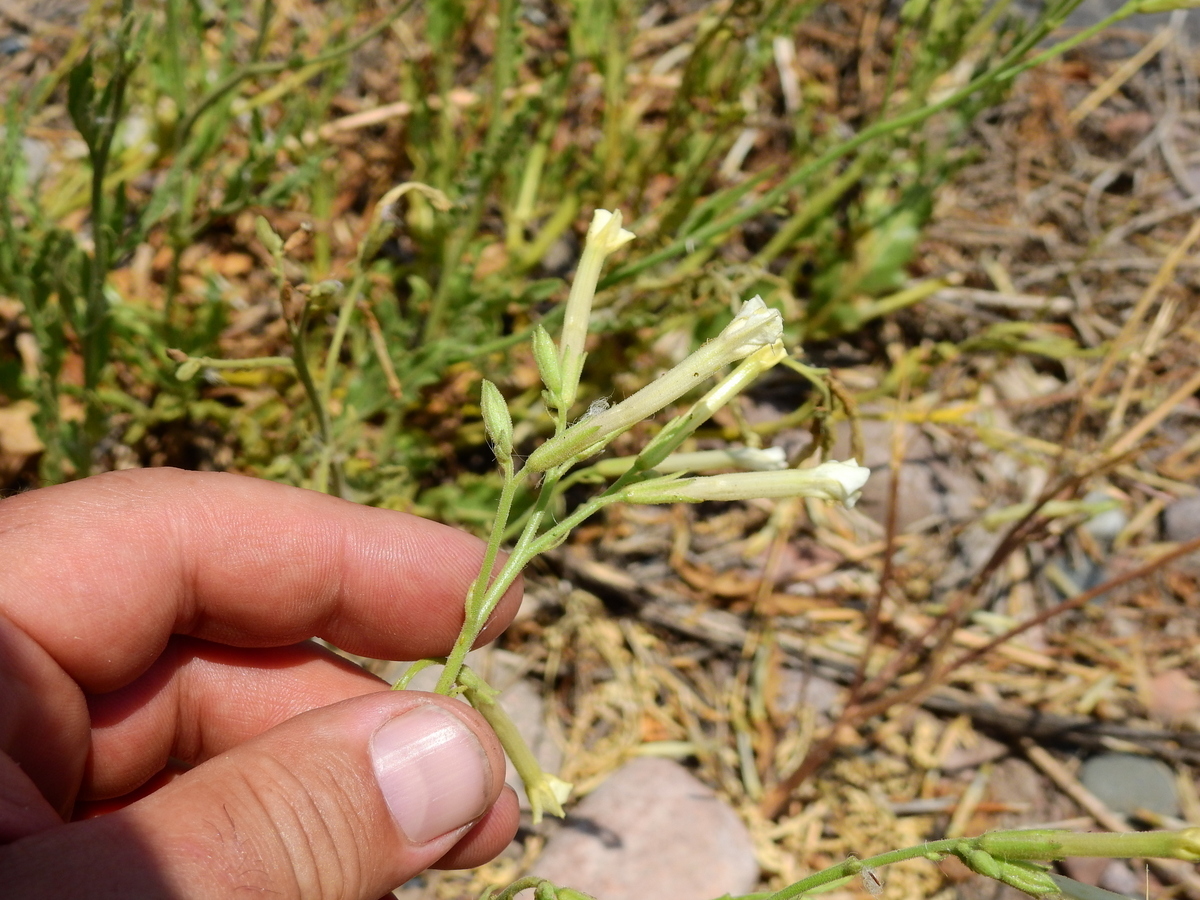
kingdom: Plantae
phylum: Tracheophyta
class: Magnoliopsida
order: Solanales
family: Solanaceae
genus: Nicotiana
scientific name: Nicotiana noctiflora
